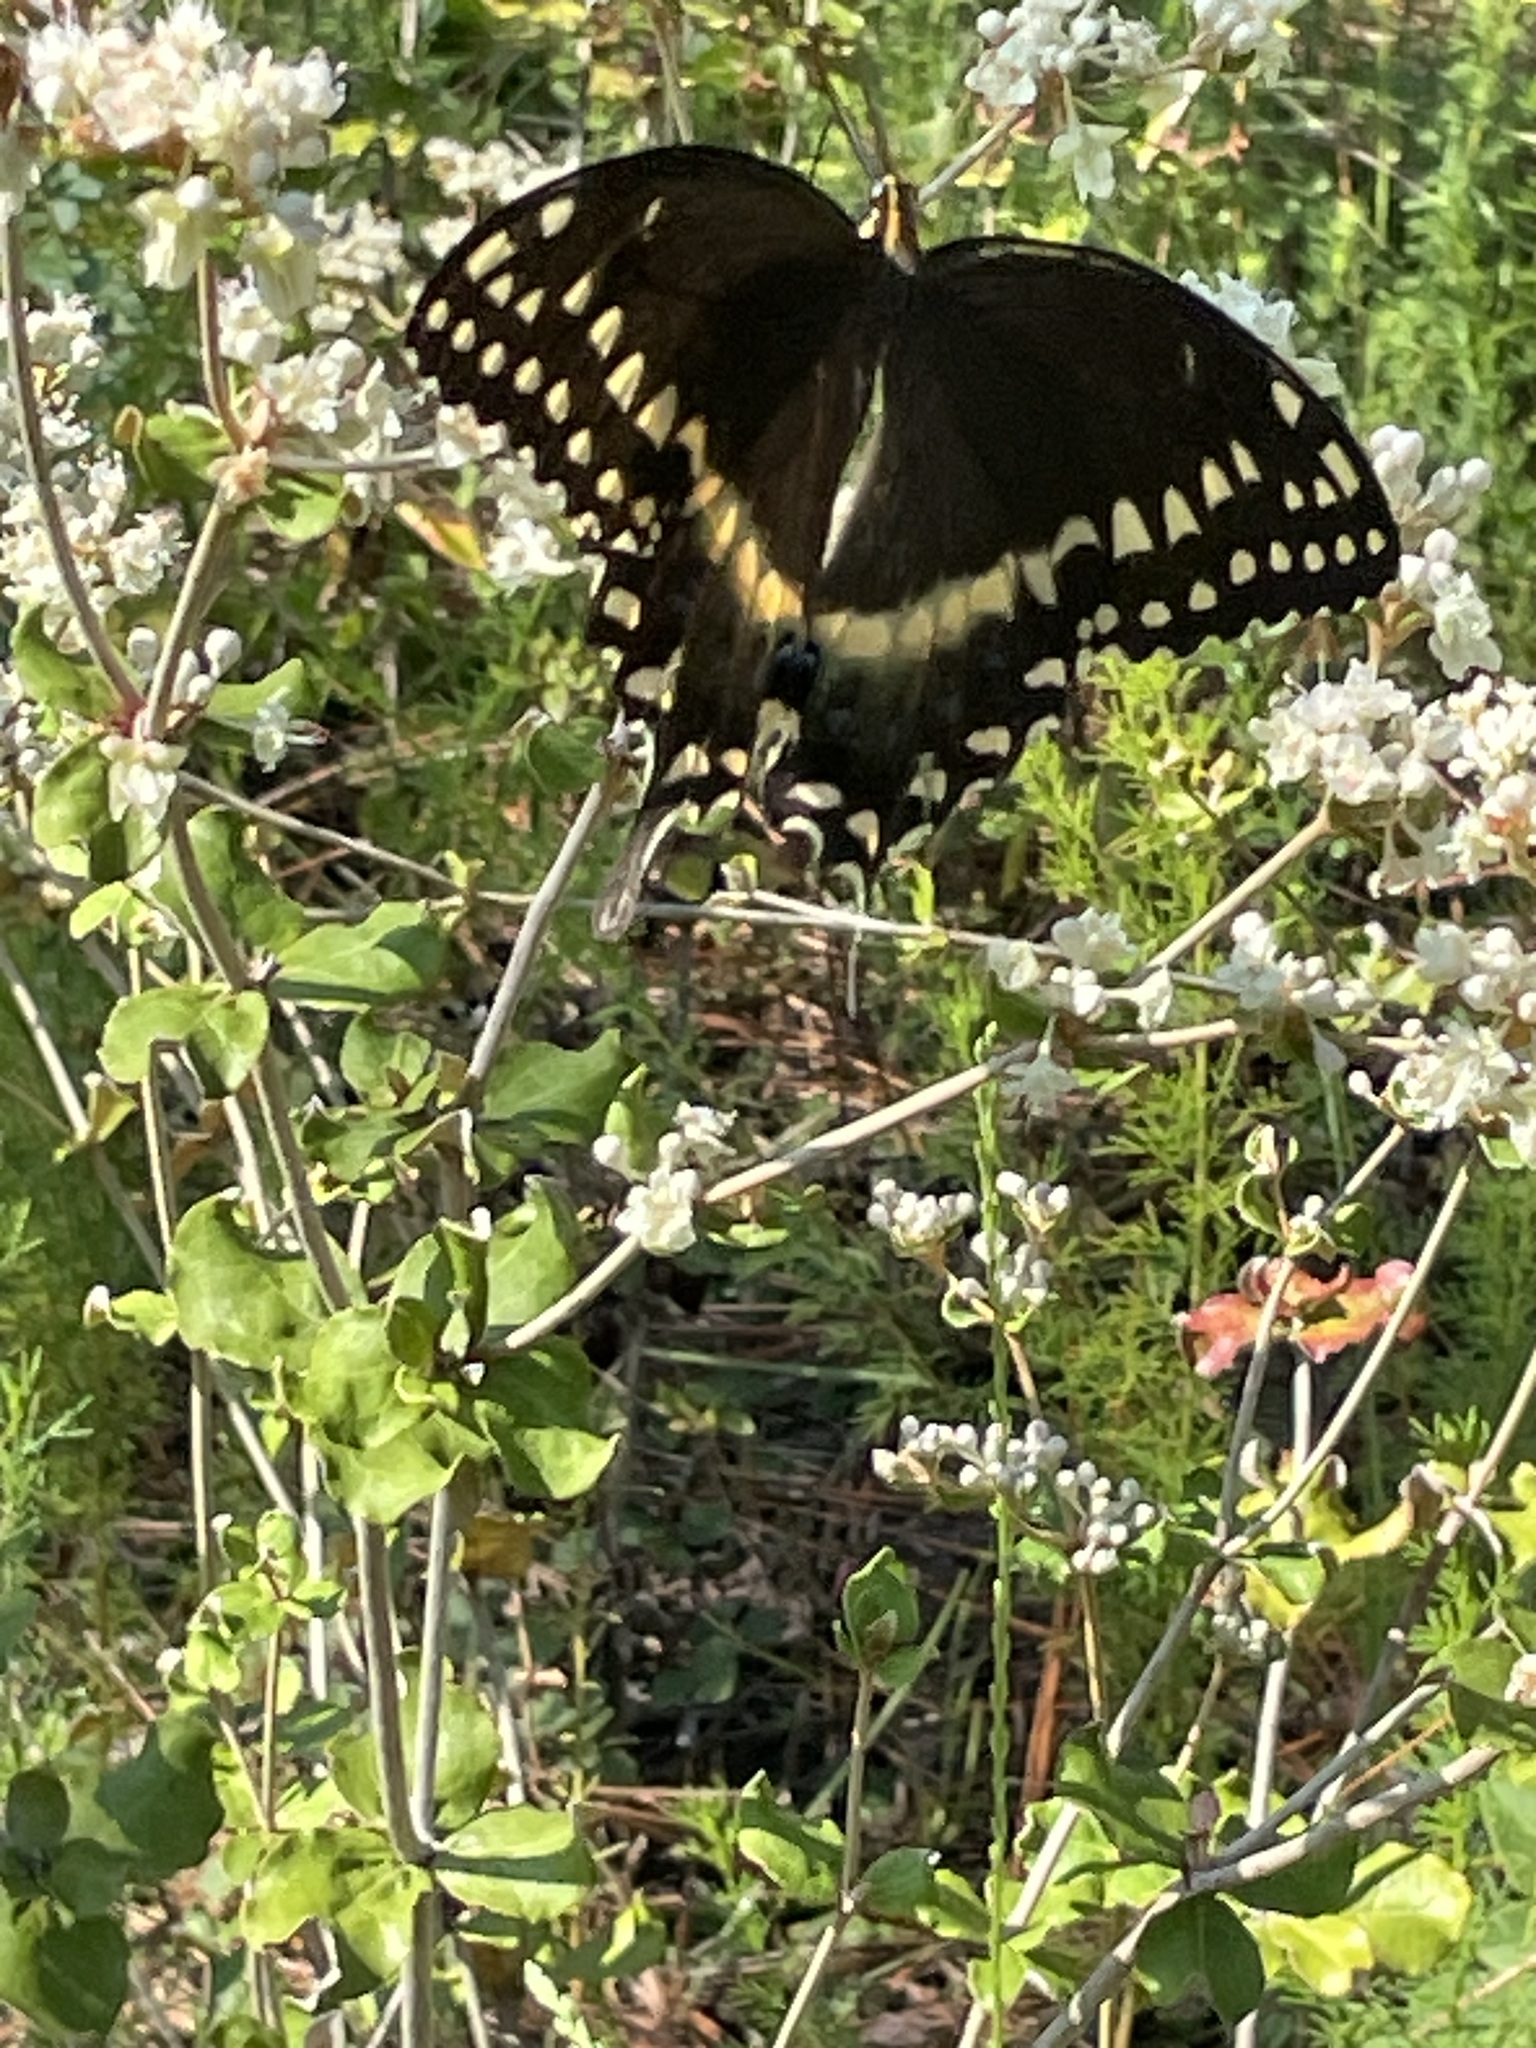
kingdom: Animalia
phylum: Arthropoda
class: Insecta
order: Lepidoptera
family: Papilionidae
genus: Papilio
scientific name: Papilio palamedes
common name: Palamedes swallowtail
